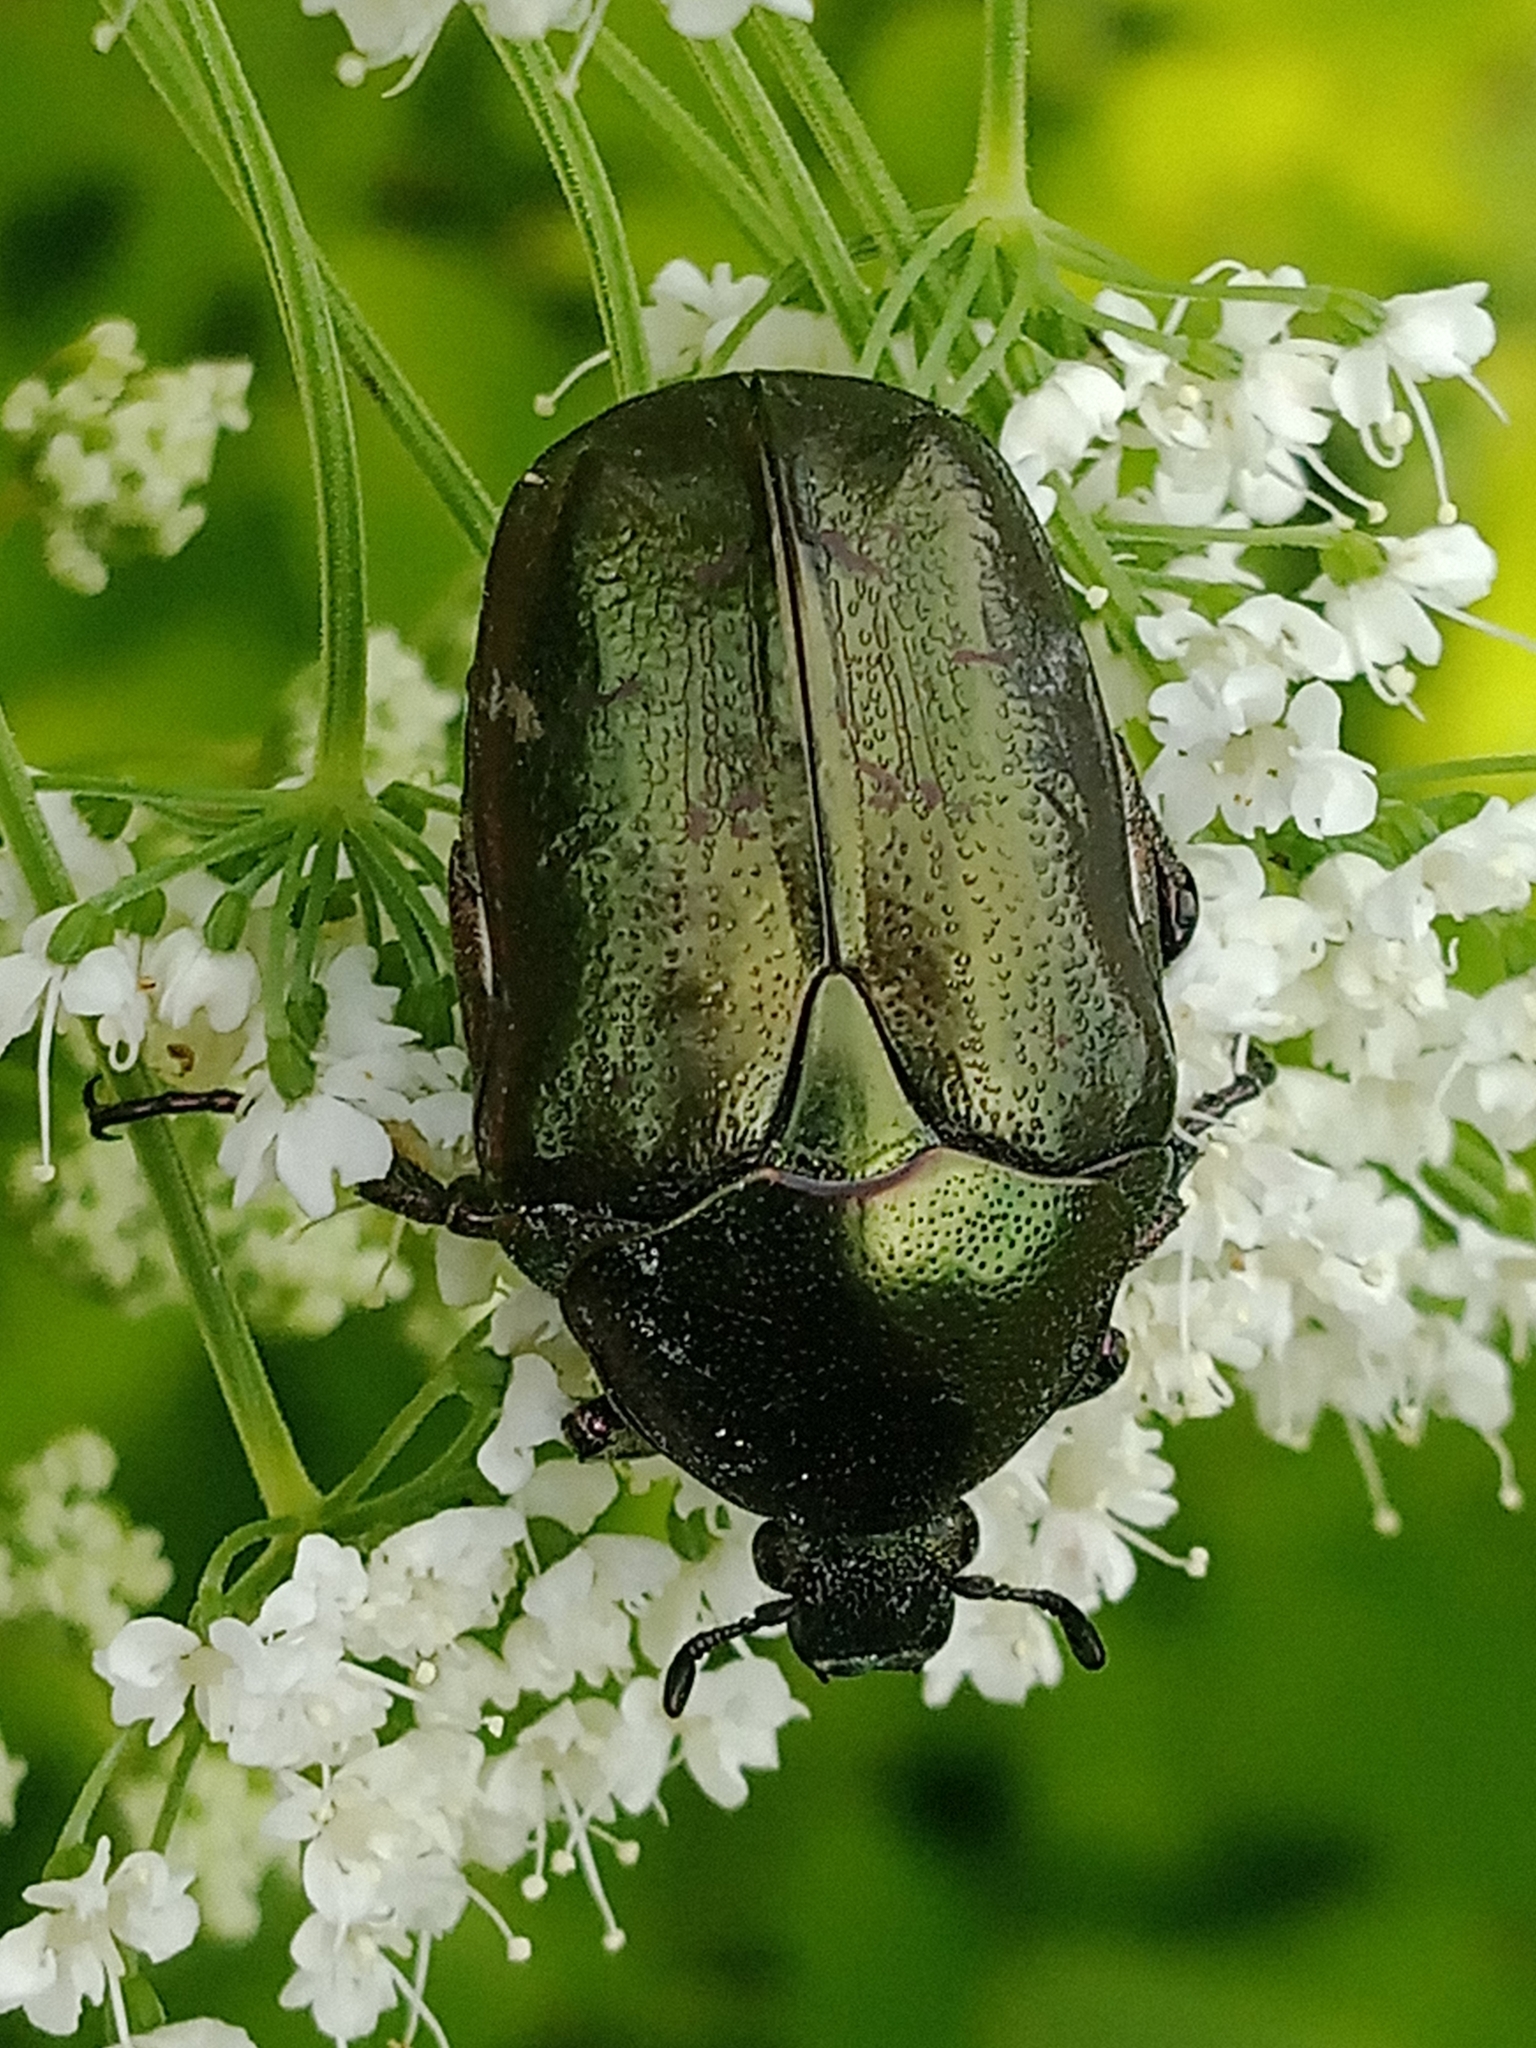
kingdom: Animalia
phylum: Arthropoda
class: Insecta
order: Coleoptera
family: Scarabaeidae
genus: Protaetia
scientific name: Protaetia cuprea
